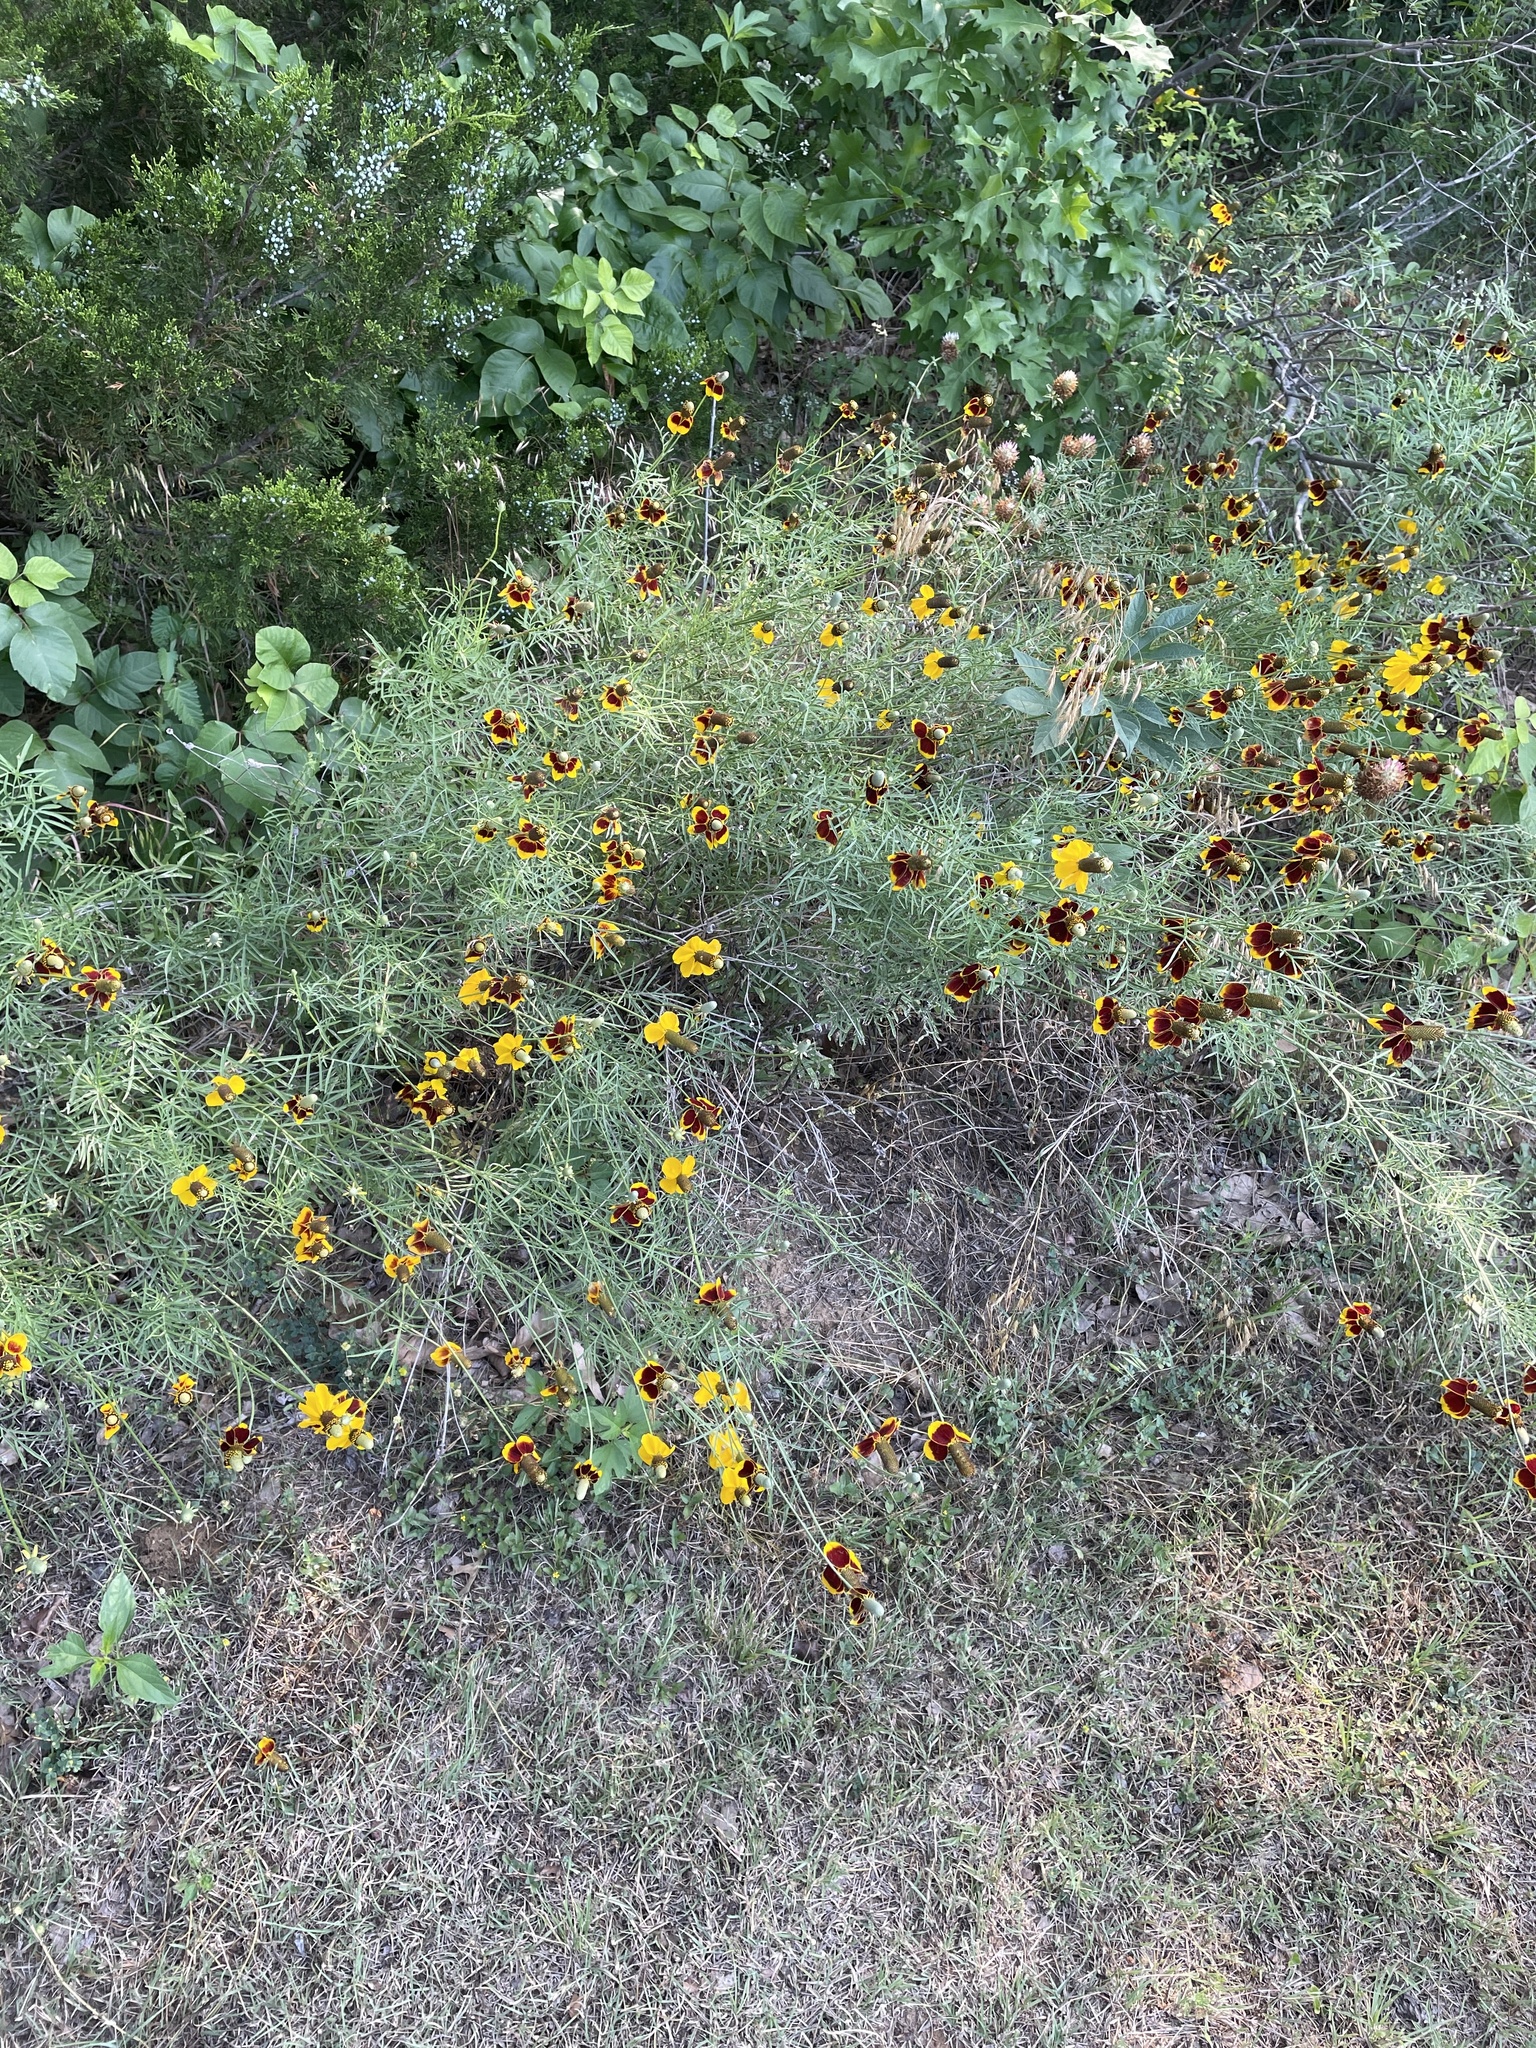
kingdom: Plantae
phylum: Tracheophyta
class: Magnoliopsida
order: Asterales
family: Asteraceae
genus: Ratibida
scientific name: Ratibida columnifera
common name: Prairie coneflower
